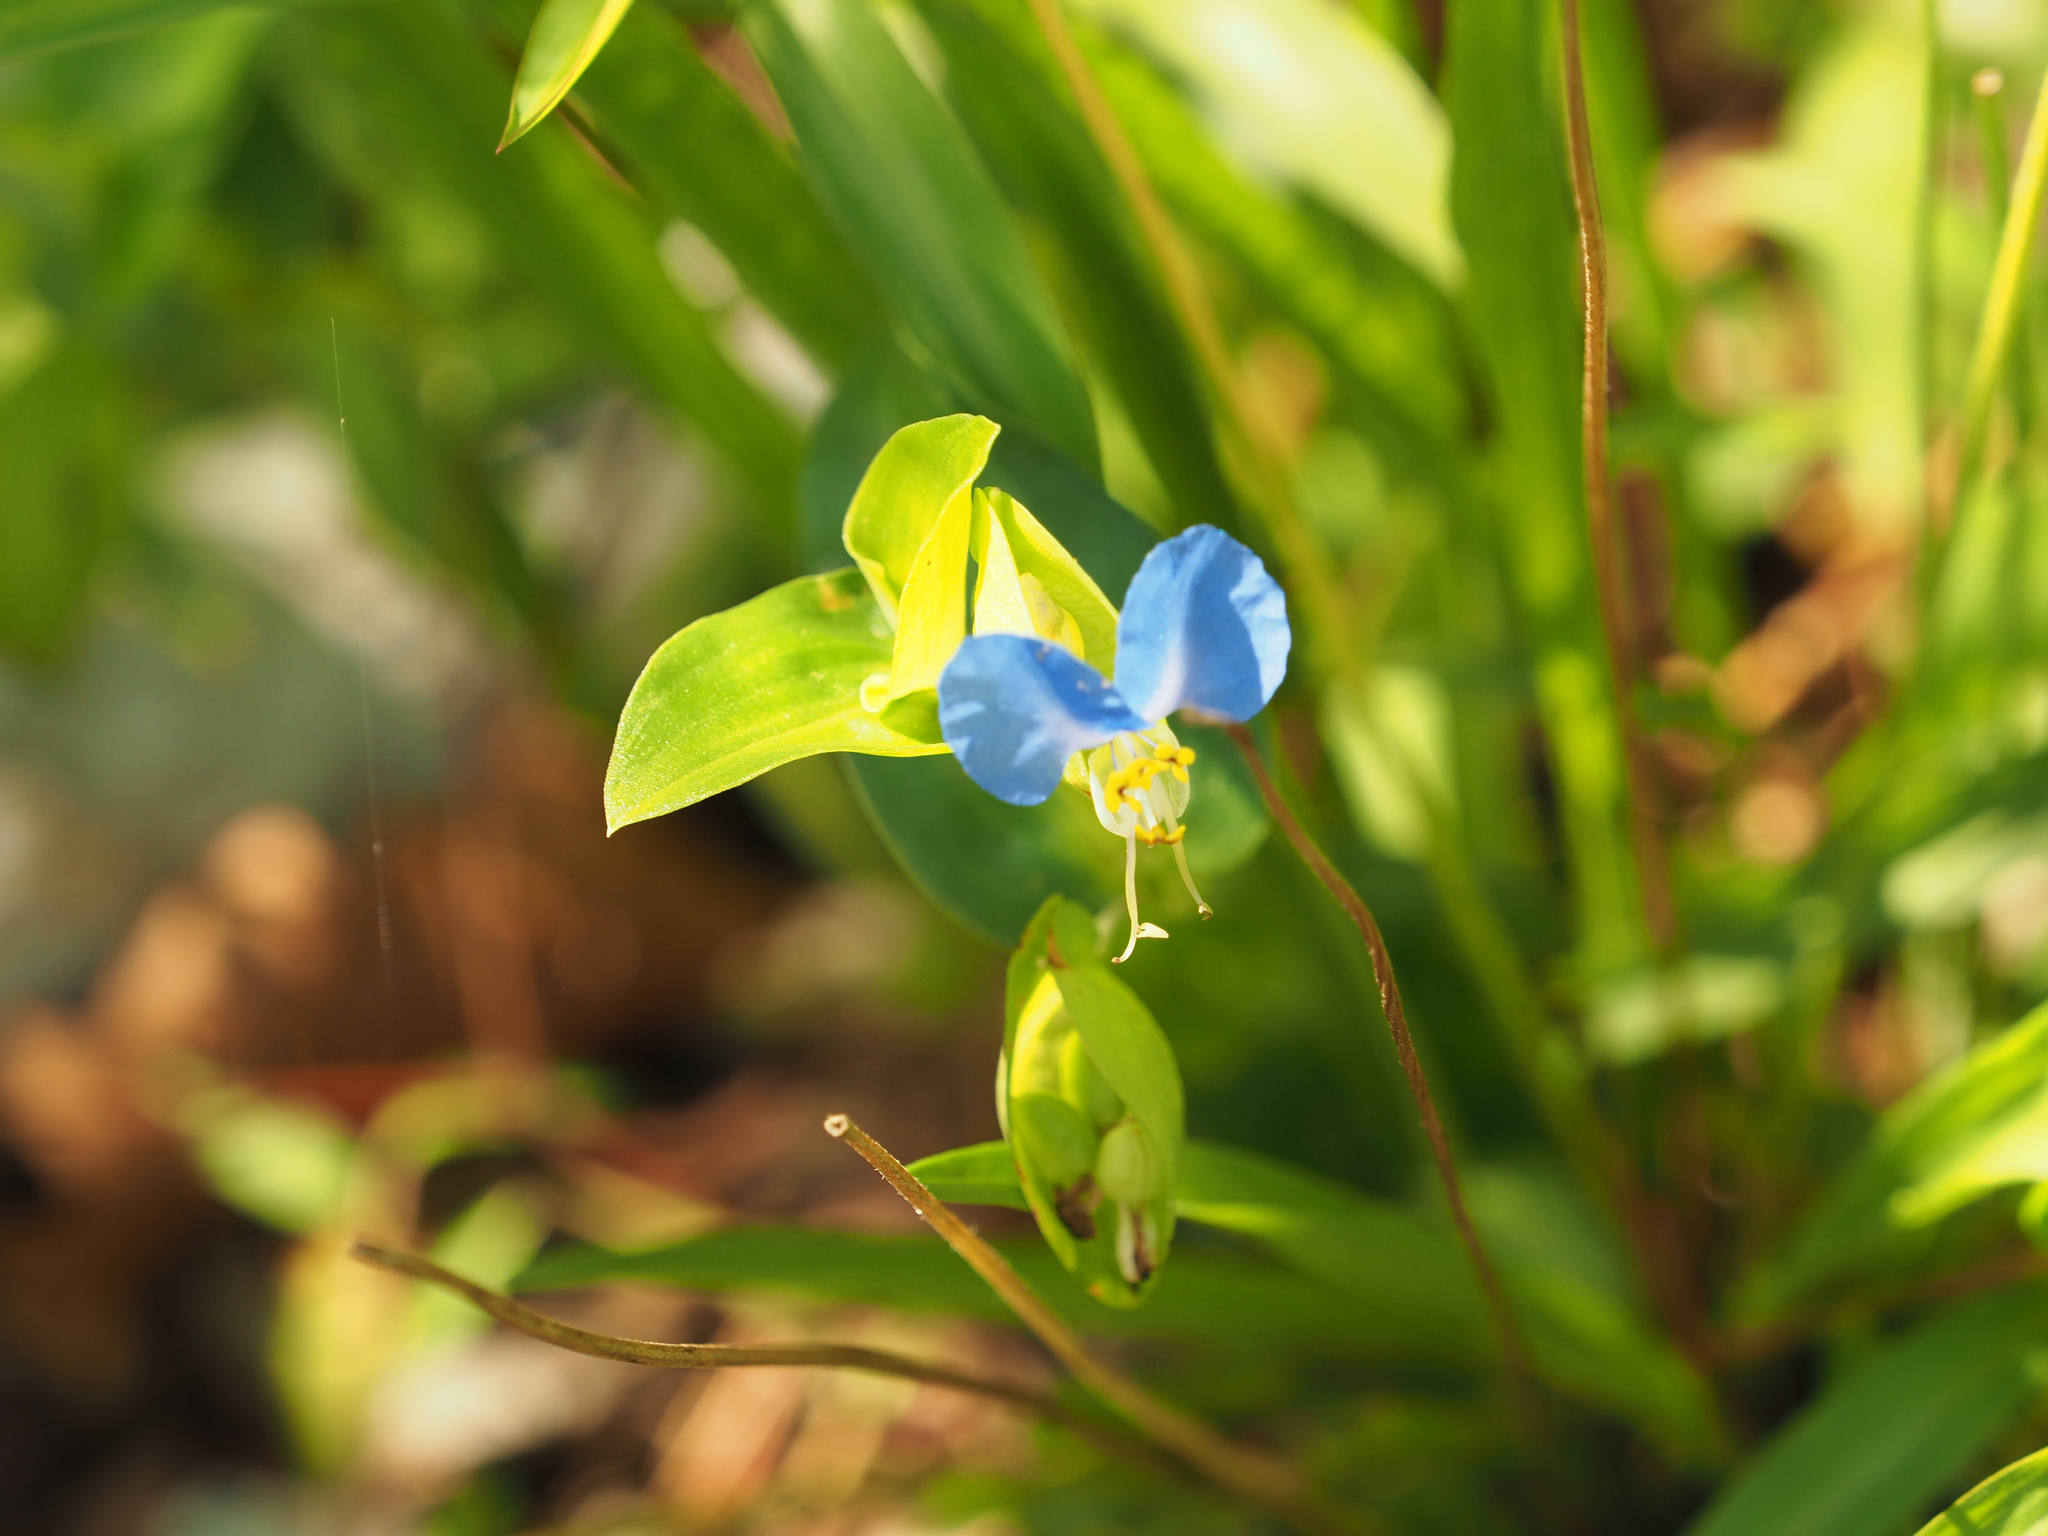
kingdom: Plantae
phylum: Tracheophyta
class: Liliopsida
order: Commelinales
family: Commelinaceae
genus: Commelina
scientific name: Commelina communis
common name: Asiatic dayflower
